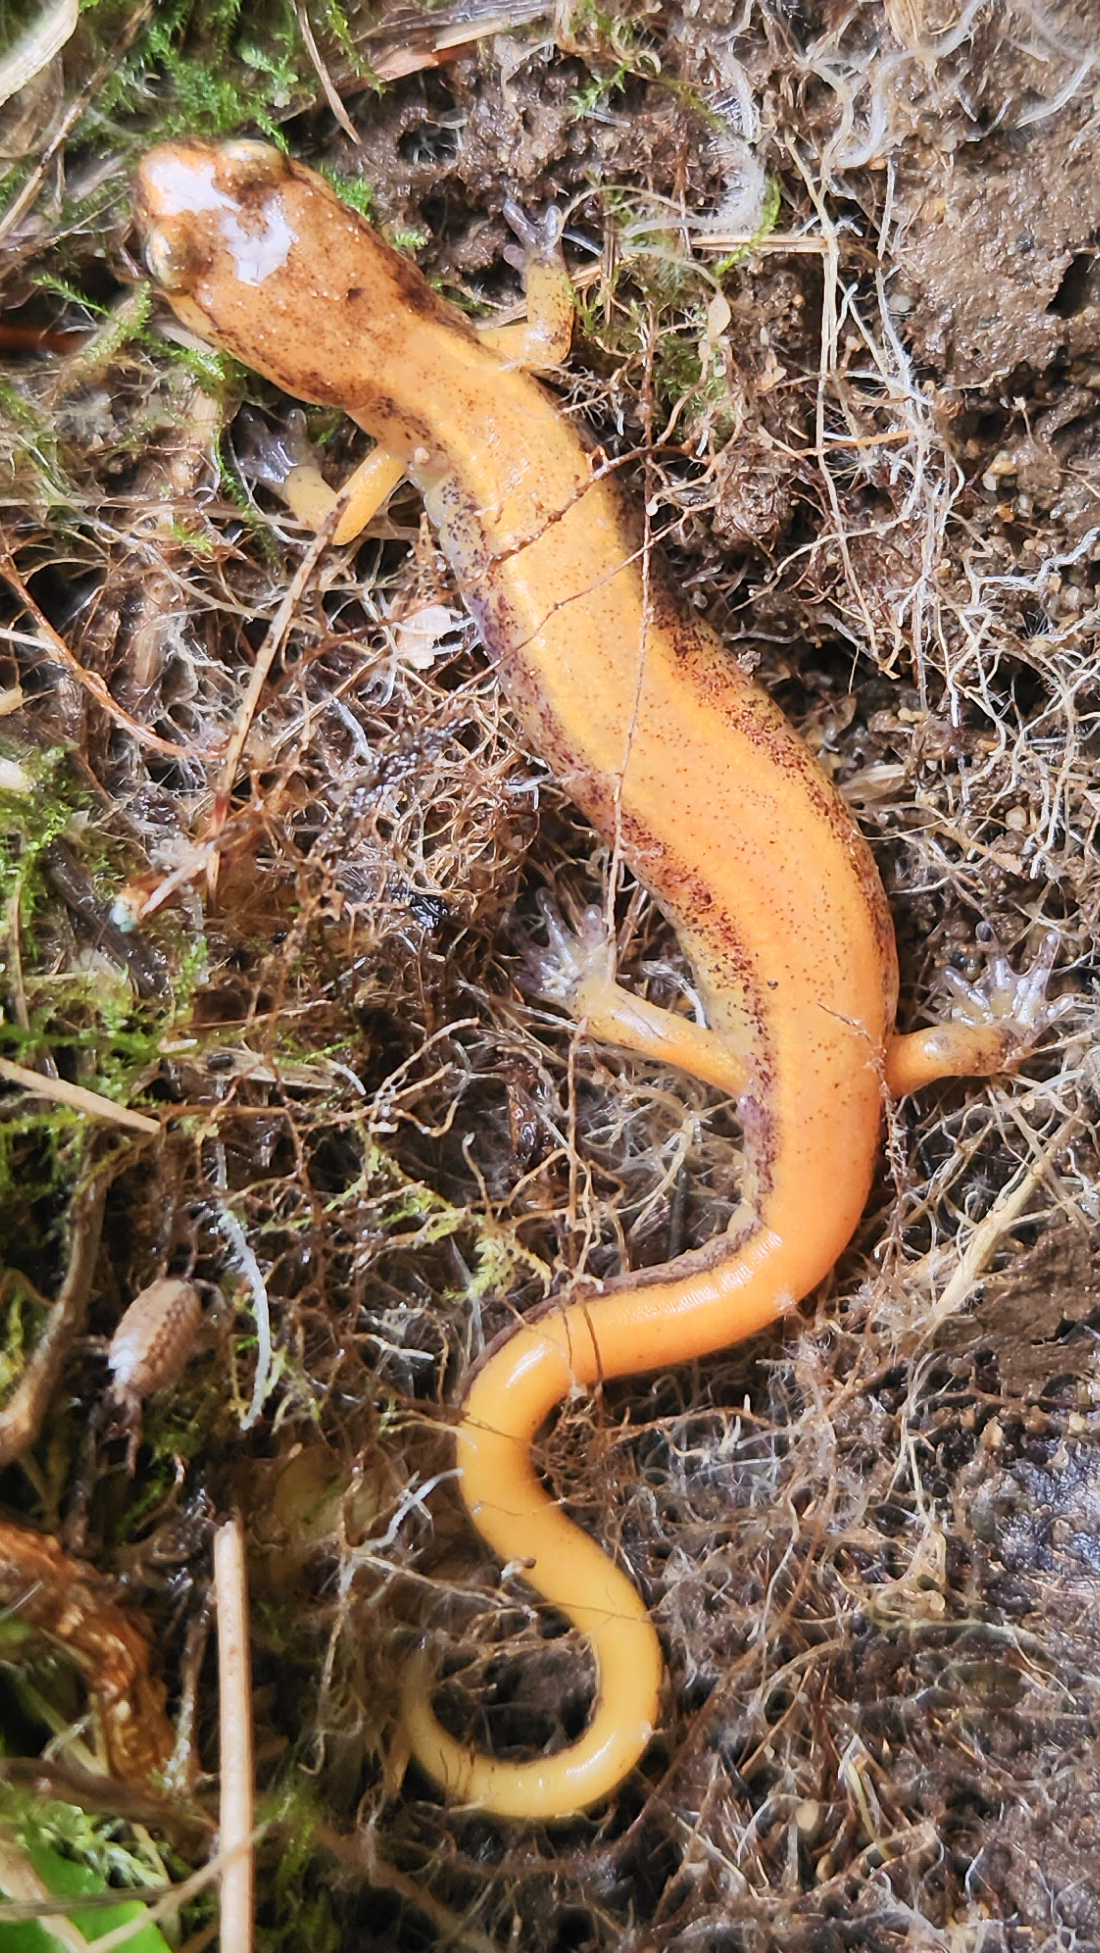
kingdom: Animalia
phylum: Chordata
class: Amphibia
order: Caudata
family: Plethodontidae
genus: Plethodon
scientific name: Plethodon vehiculum
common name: Western red-backed salamander
